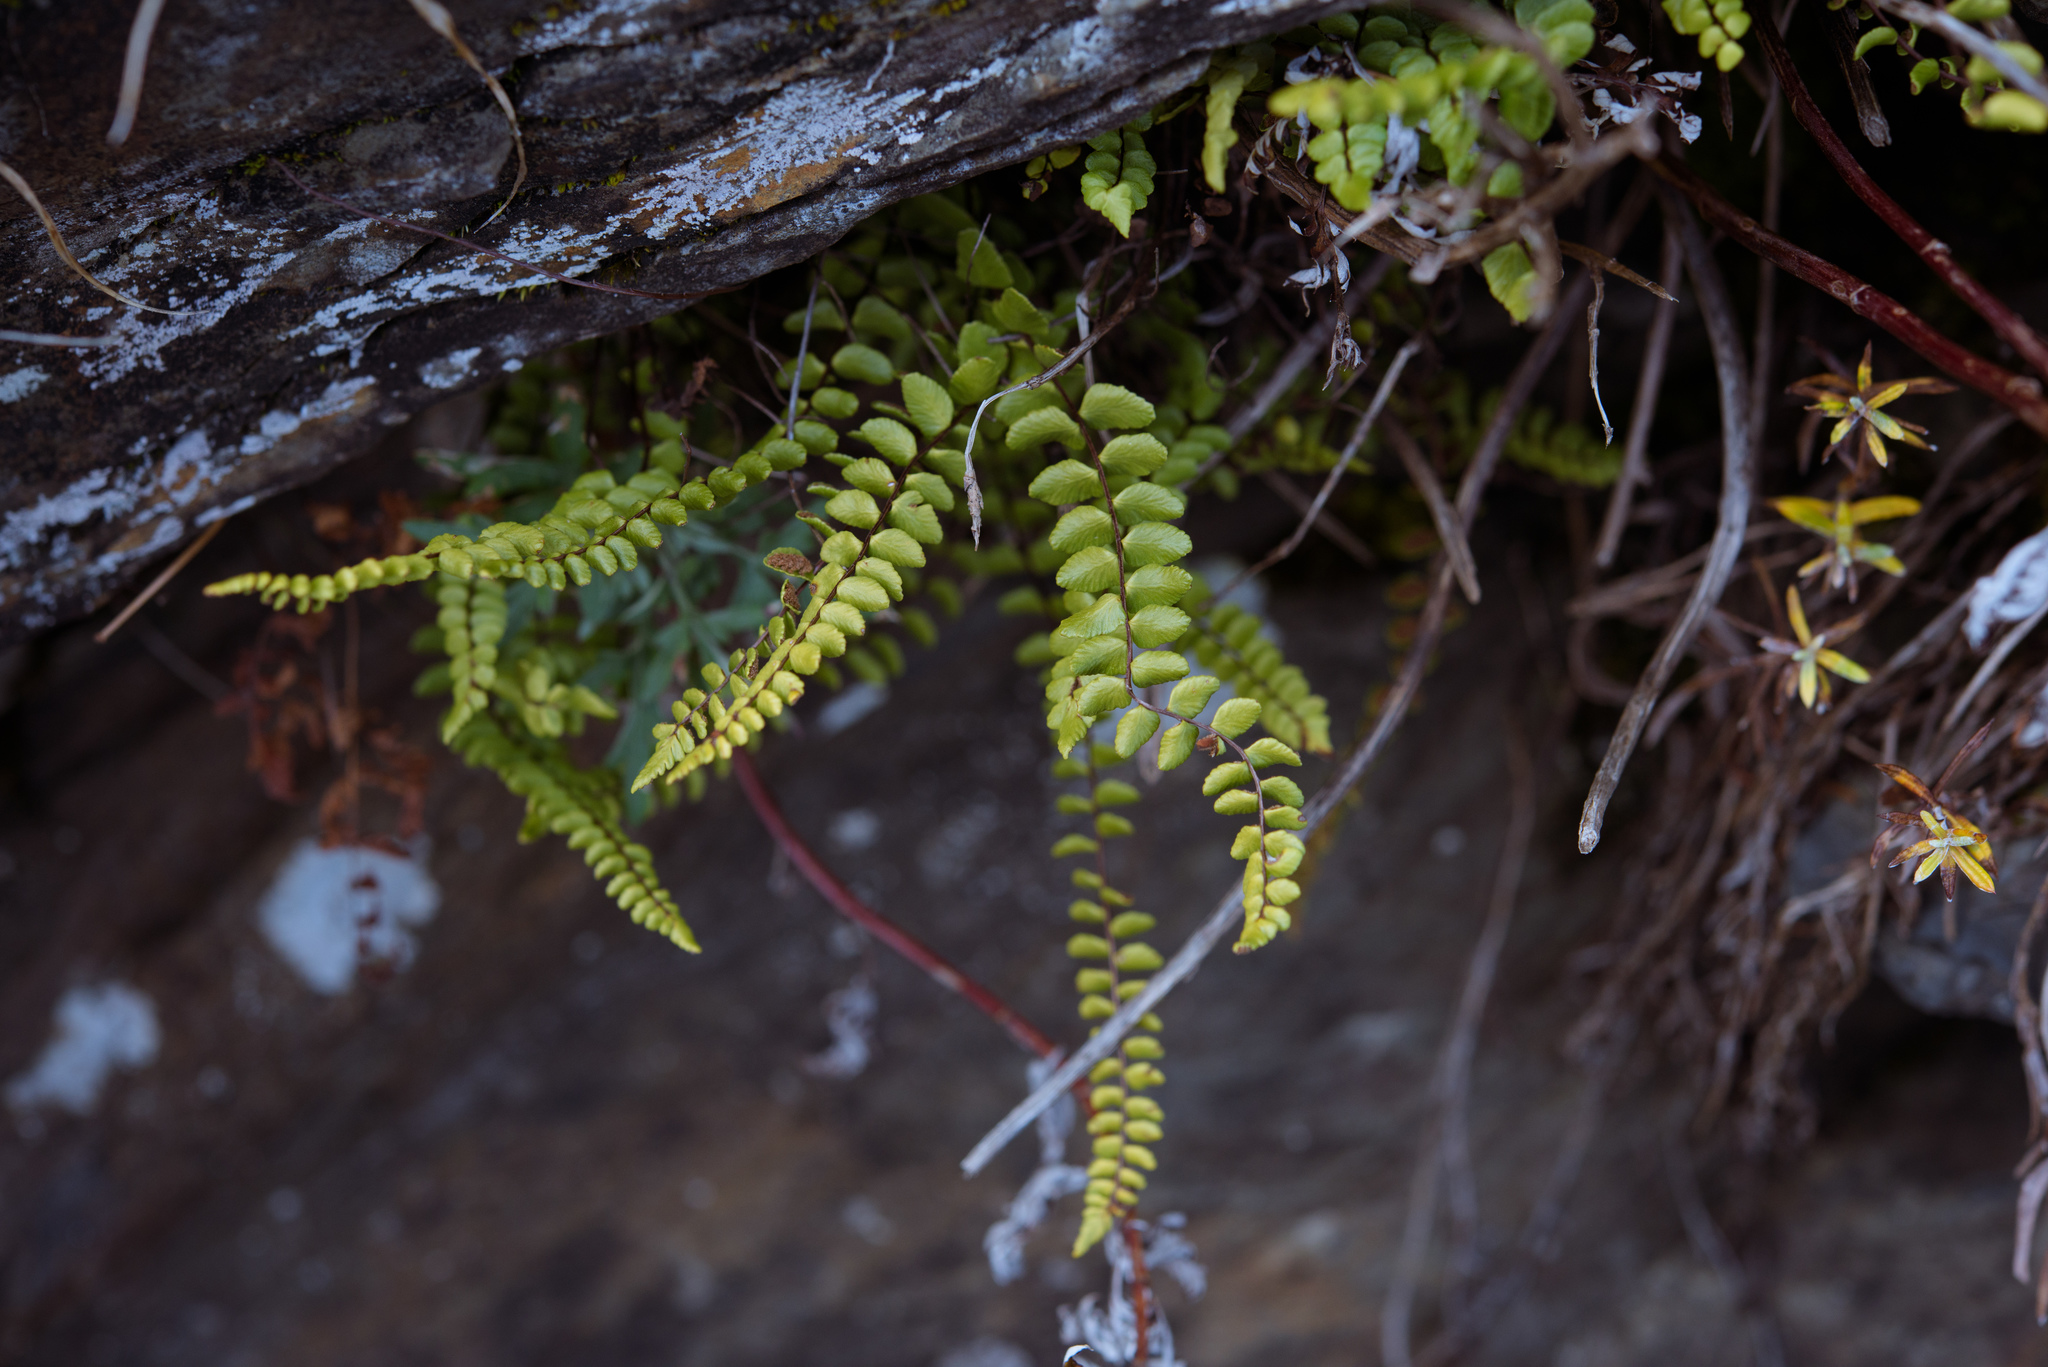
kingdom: Plantae
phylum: Tracheophyta
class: Polypodiopsida
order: Polypodiales
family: Aspleniaceae
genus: Asplenium
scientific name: Asplenium trichomanes
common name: Maidenhair spleenwort
